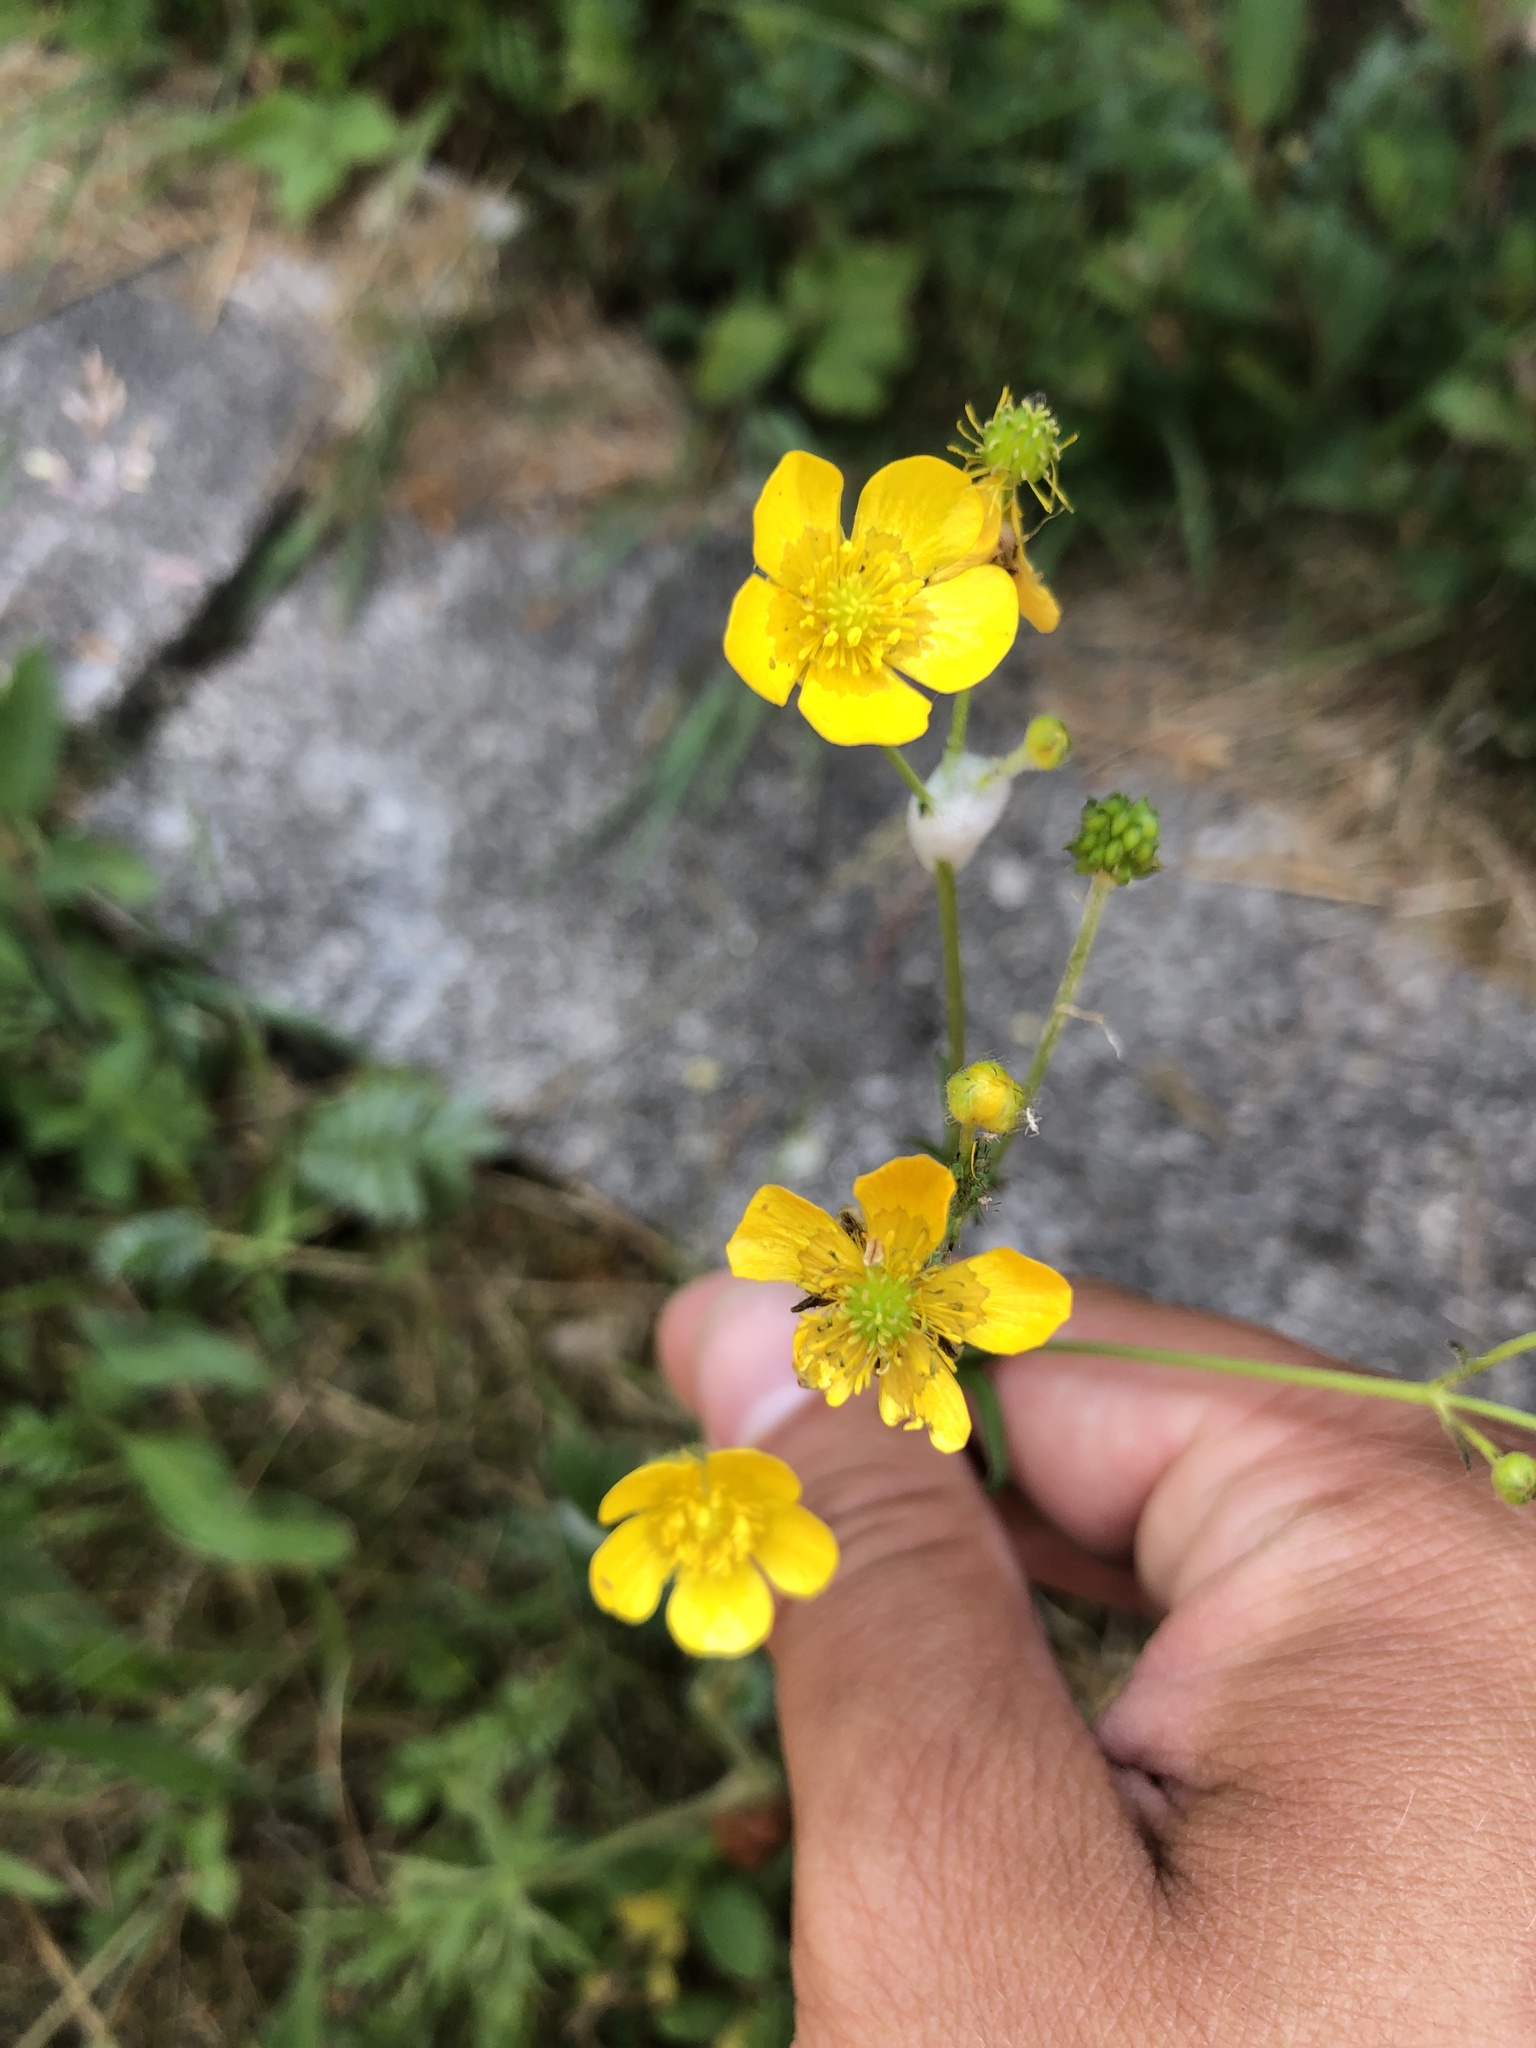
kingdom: Plantae
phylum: Tracheophyta
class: Magnoliopsida
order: Ranunculales
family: Ranunculaceae
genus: Ranunculus
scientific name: Ranunculus acris
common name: Meadow buttercup
